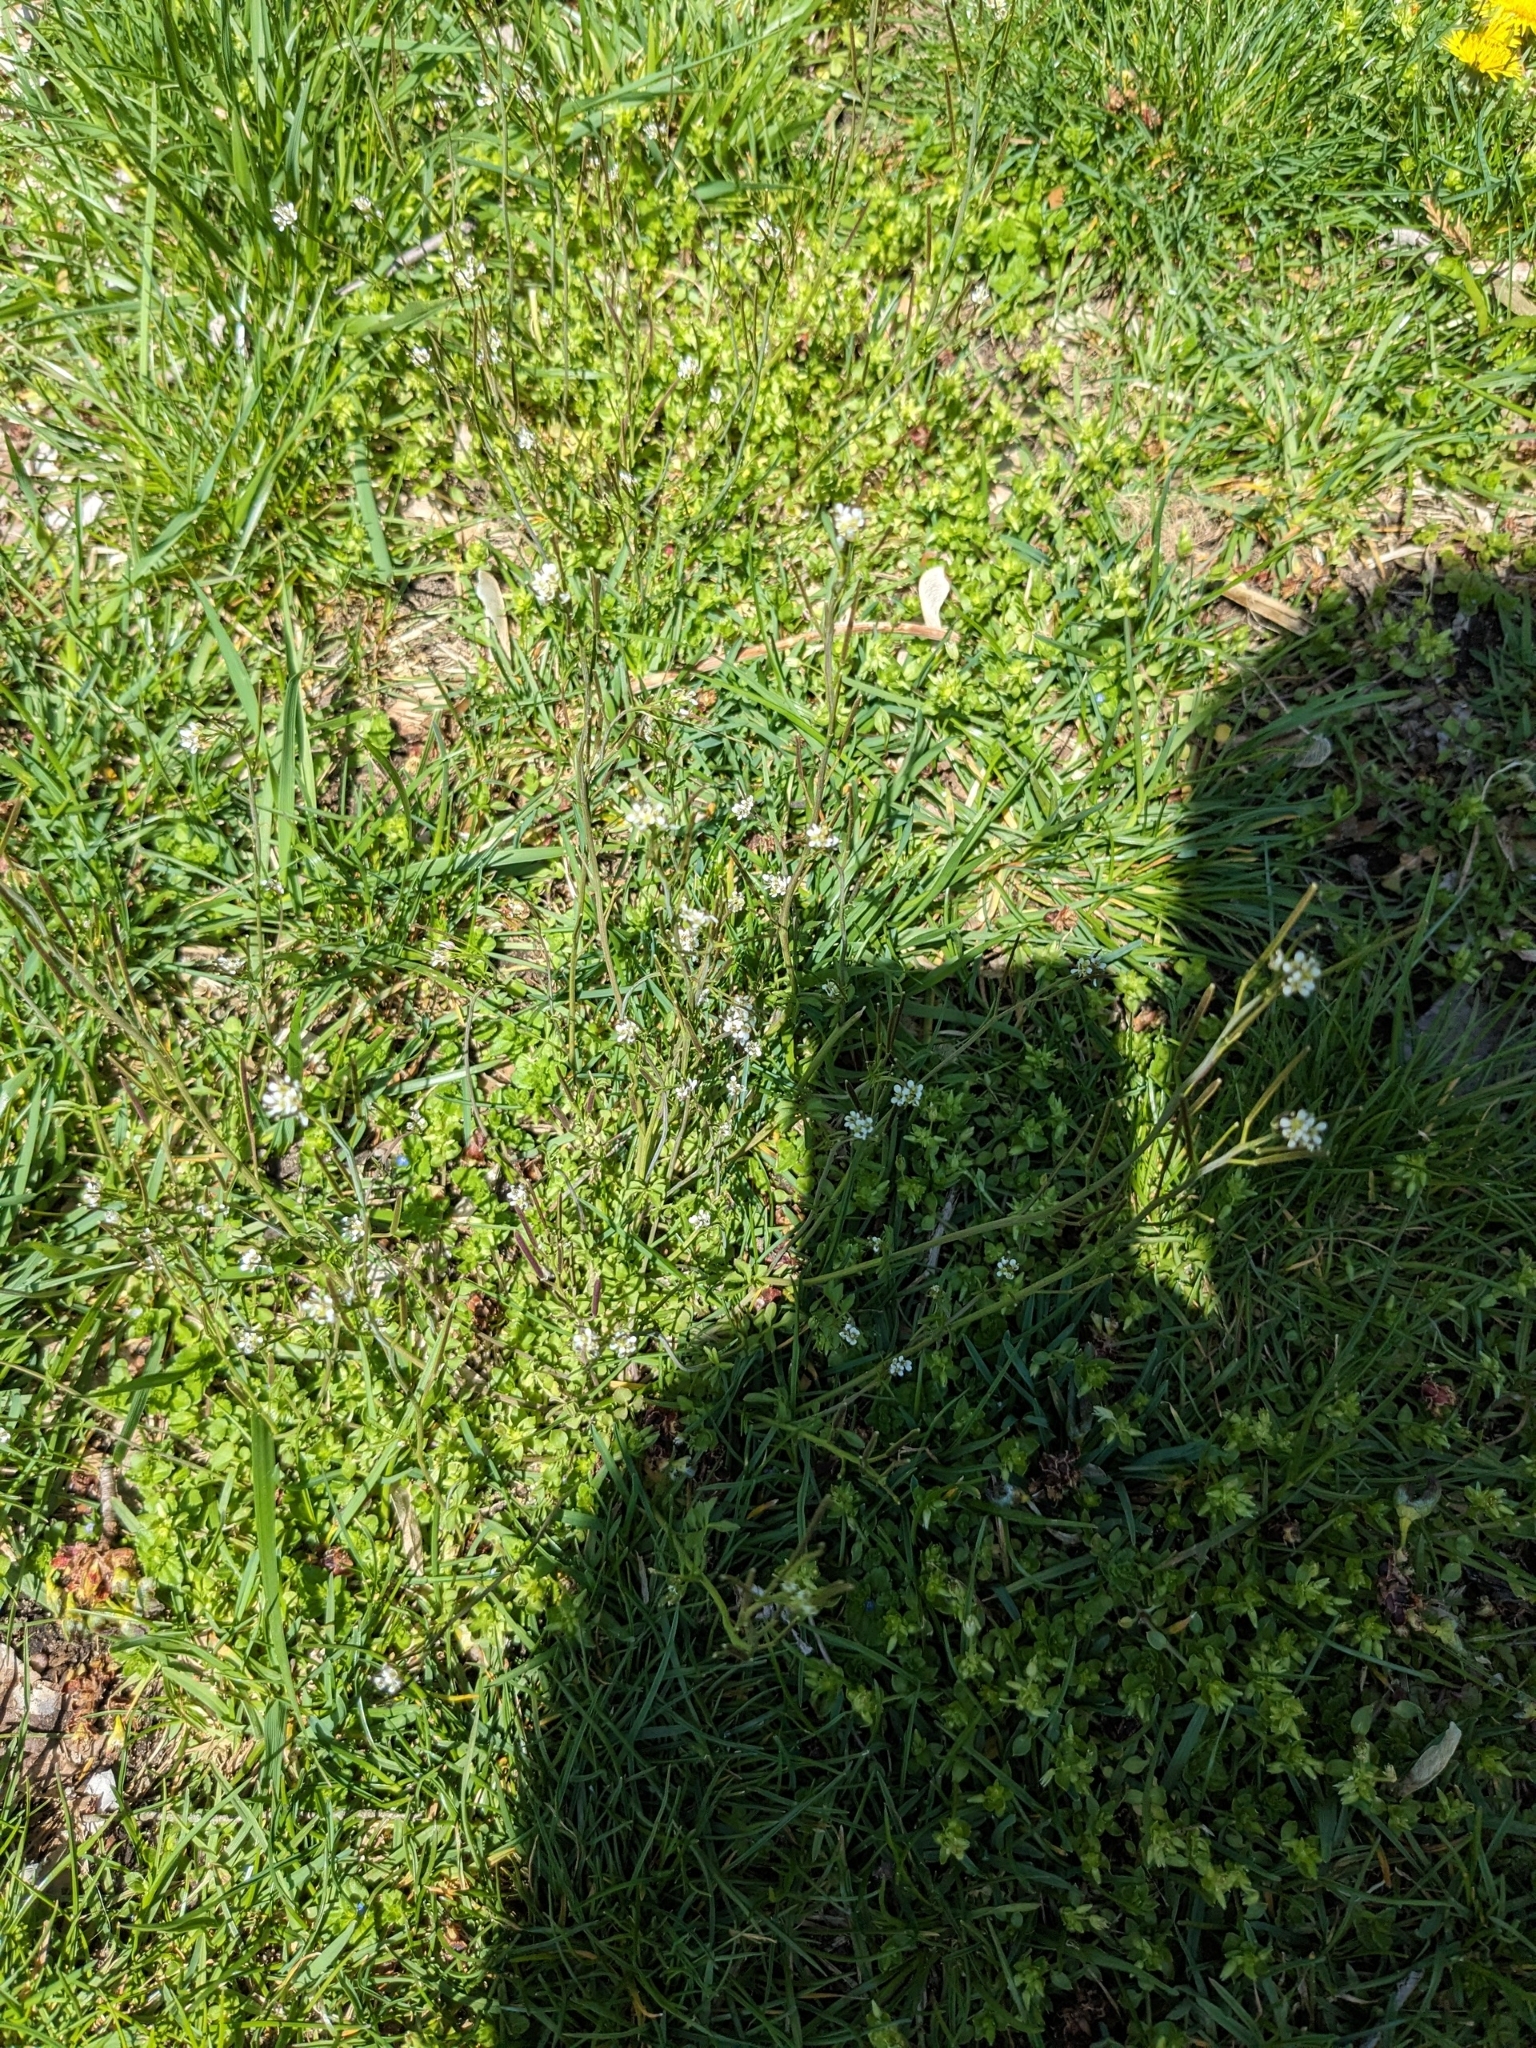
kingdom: Plantae
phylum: Tracheophyta
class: Magnoliopsida
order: Brassicales
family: Brassicaceae
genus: Cardamine
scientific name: Cardamine hirsuta
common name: Hairy bittercress
